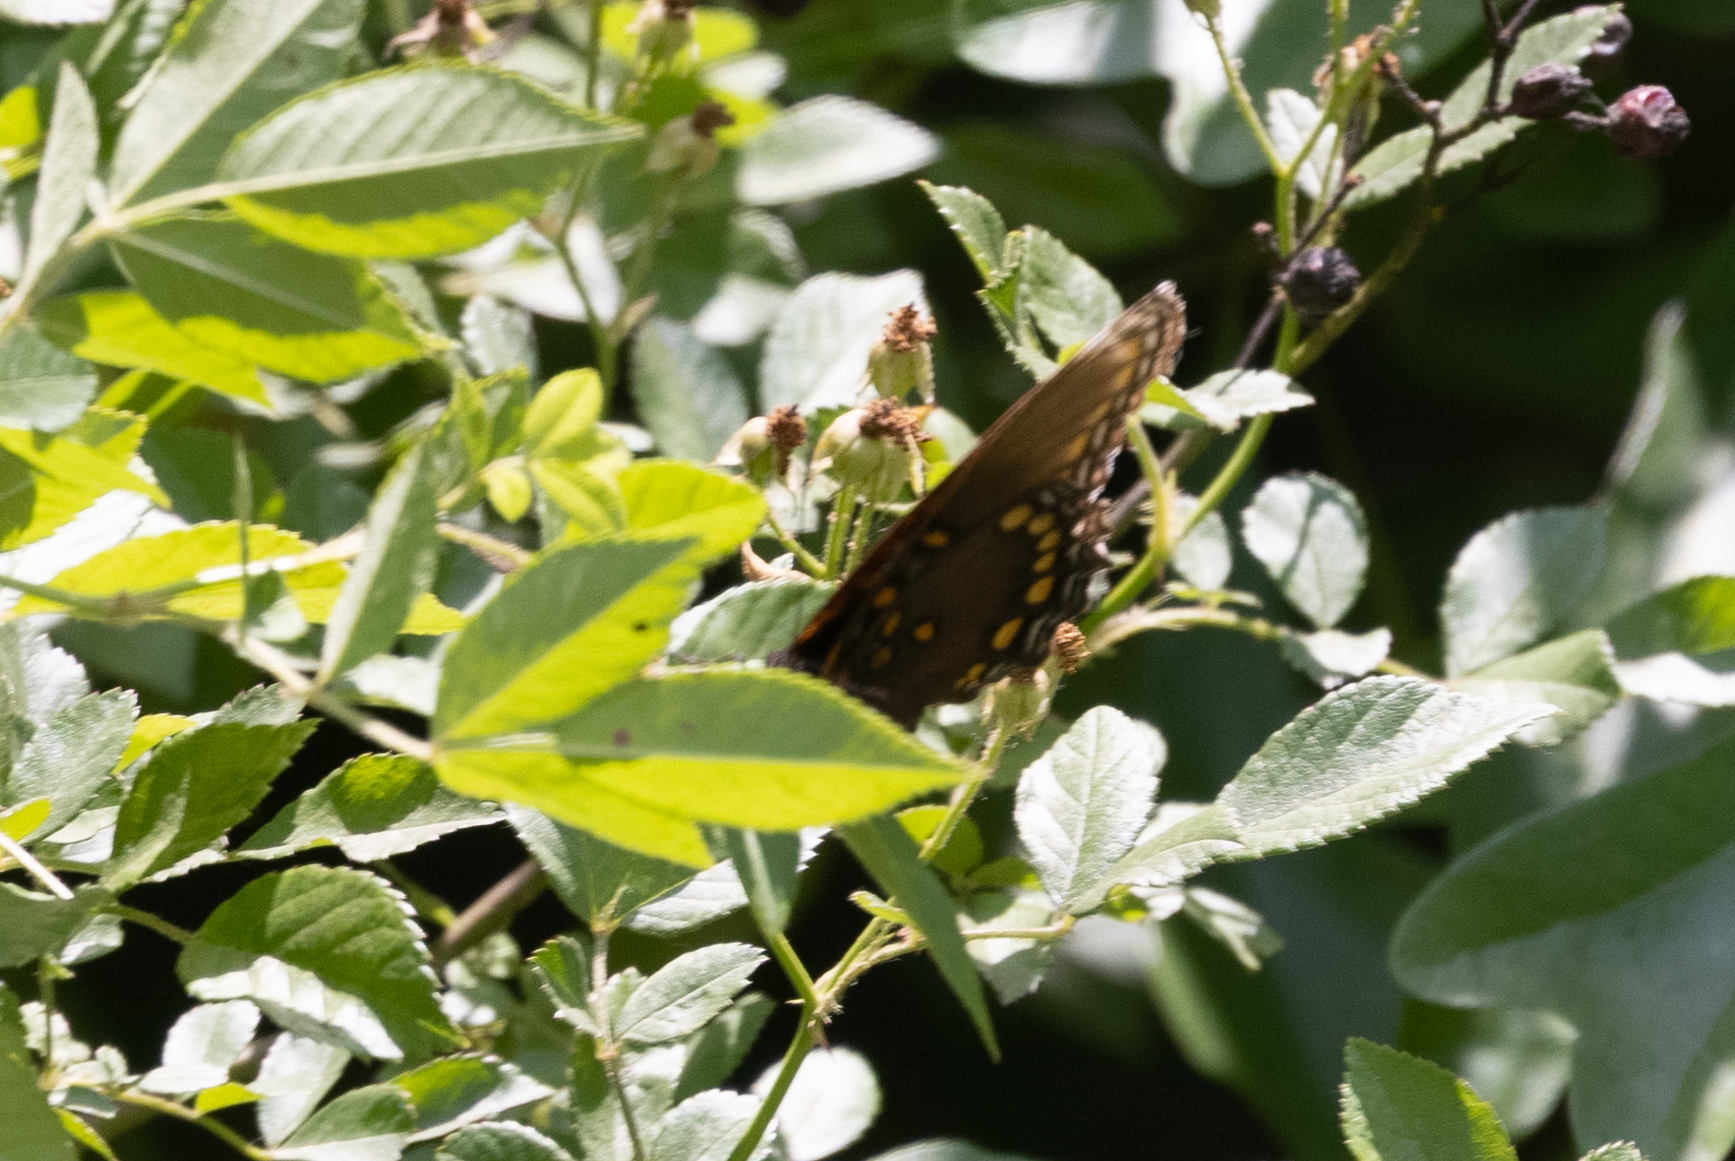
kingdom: Animalia
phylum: Arthropoda
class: Insecta
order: Lepidoptera
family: Nymphalidae
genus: Limenitis
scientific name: Limenitis astyanax
